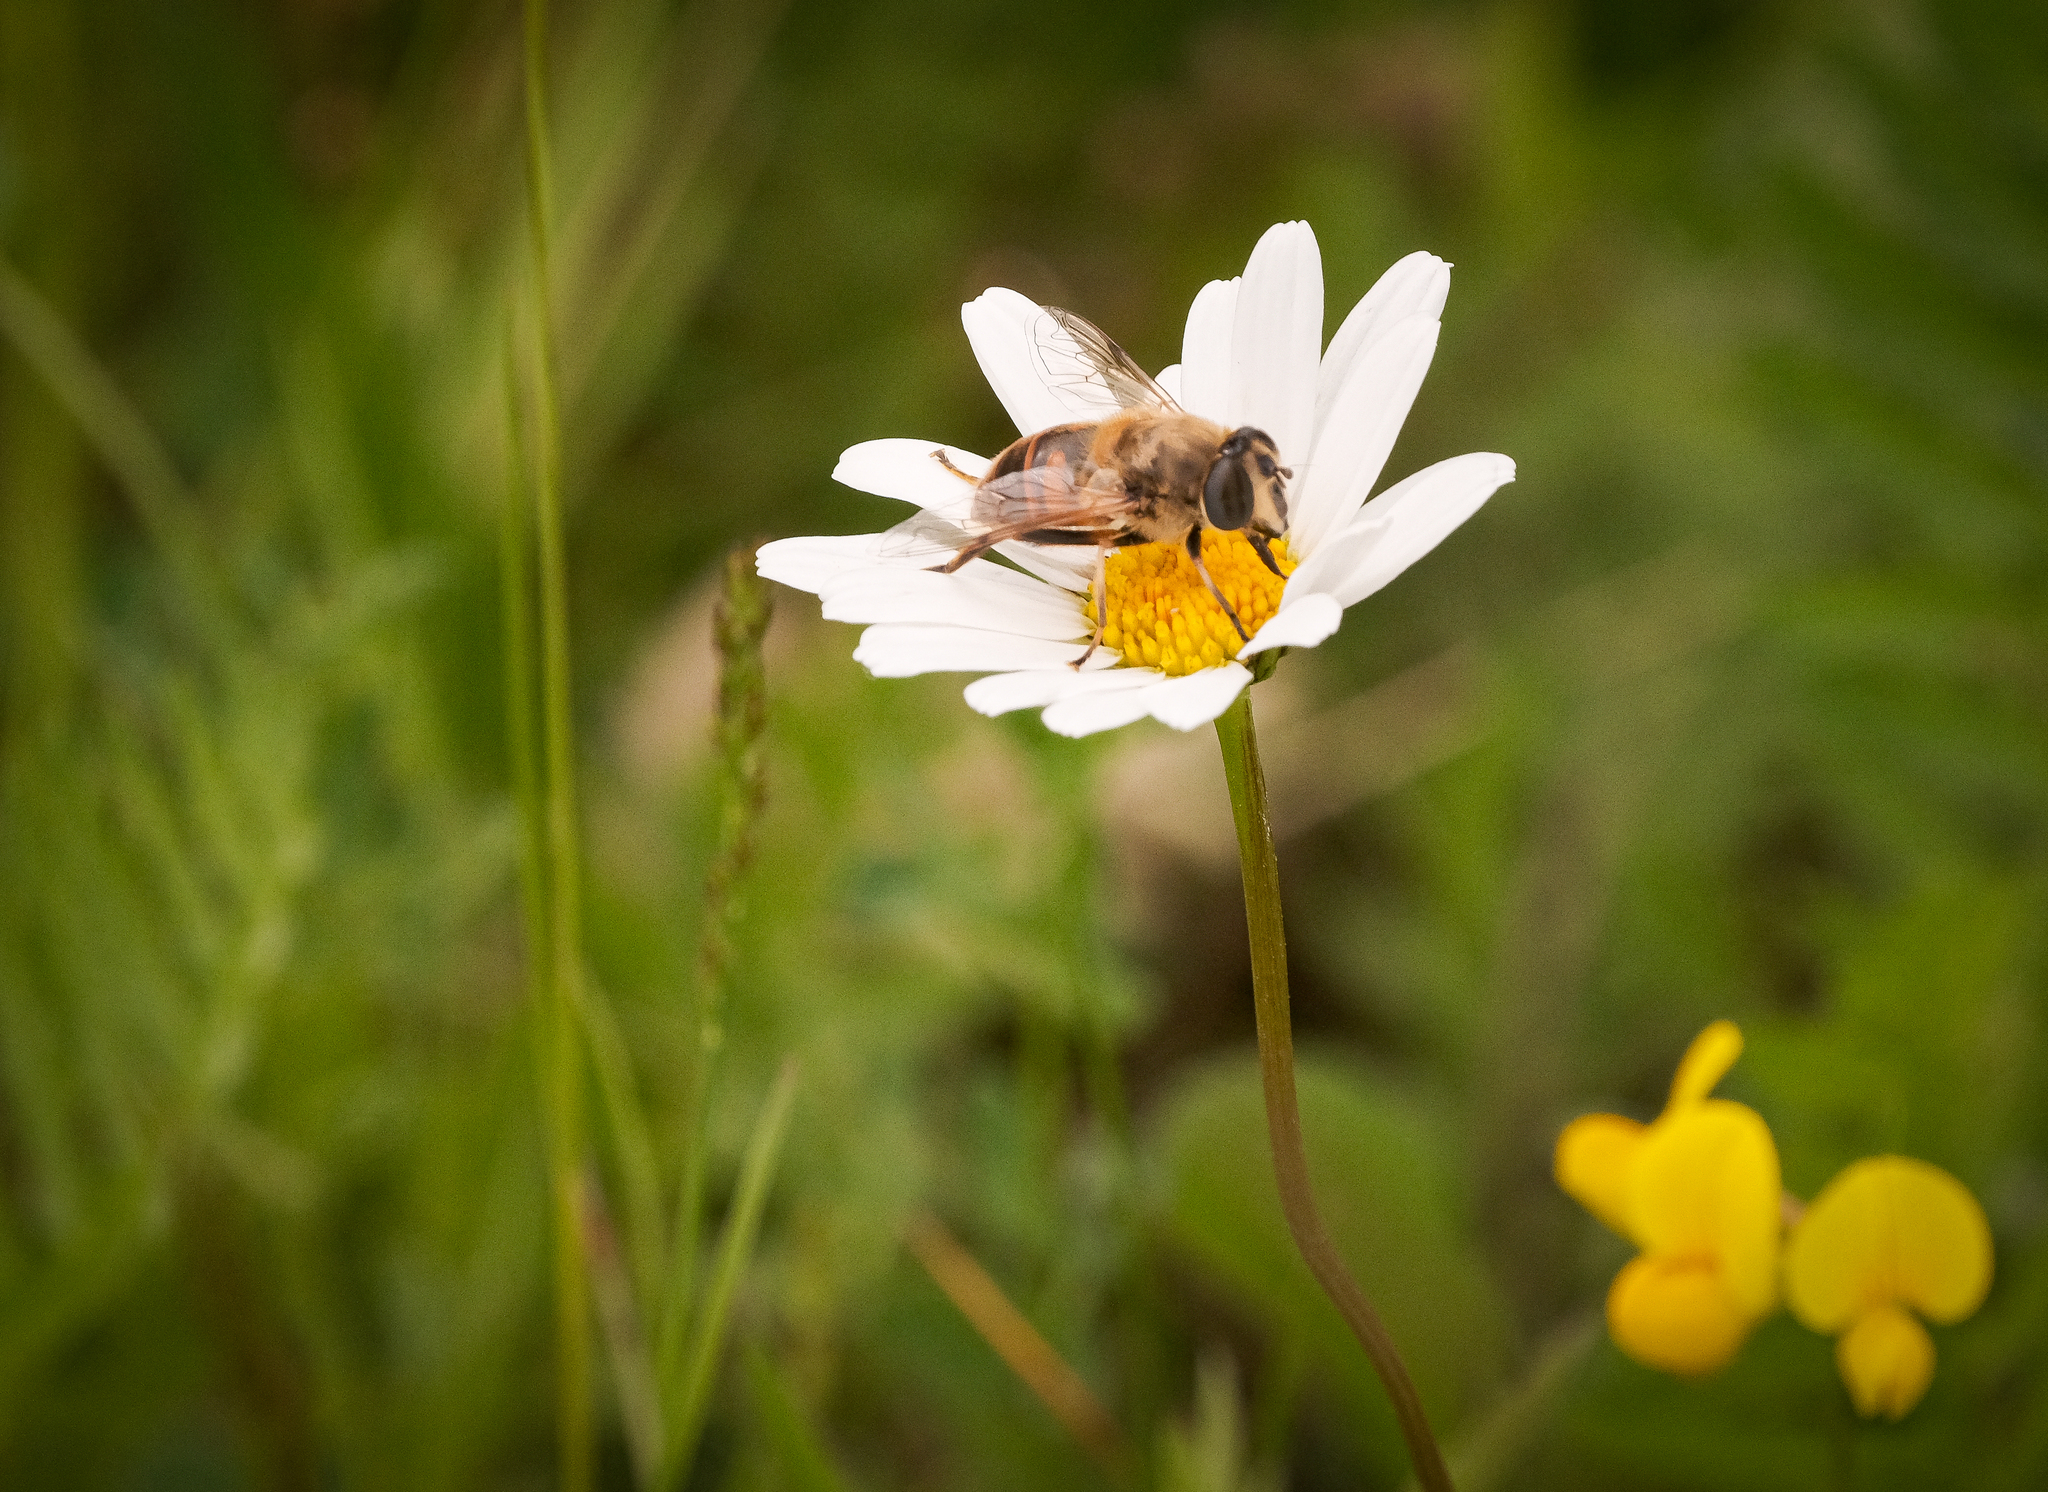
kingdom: Animalia
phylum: Arthropoda
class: Insecta
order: Diptera
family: Syrphidae
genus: Eristalis
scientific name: Eristalis tenax
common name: Drone fly
